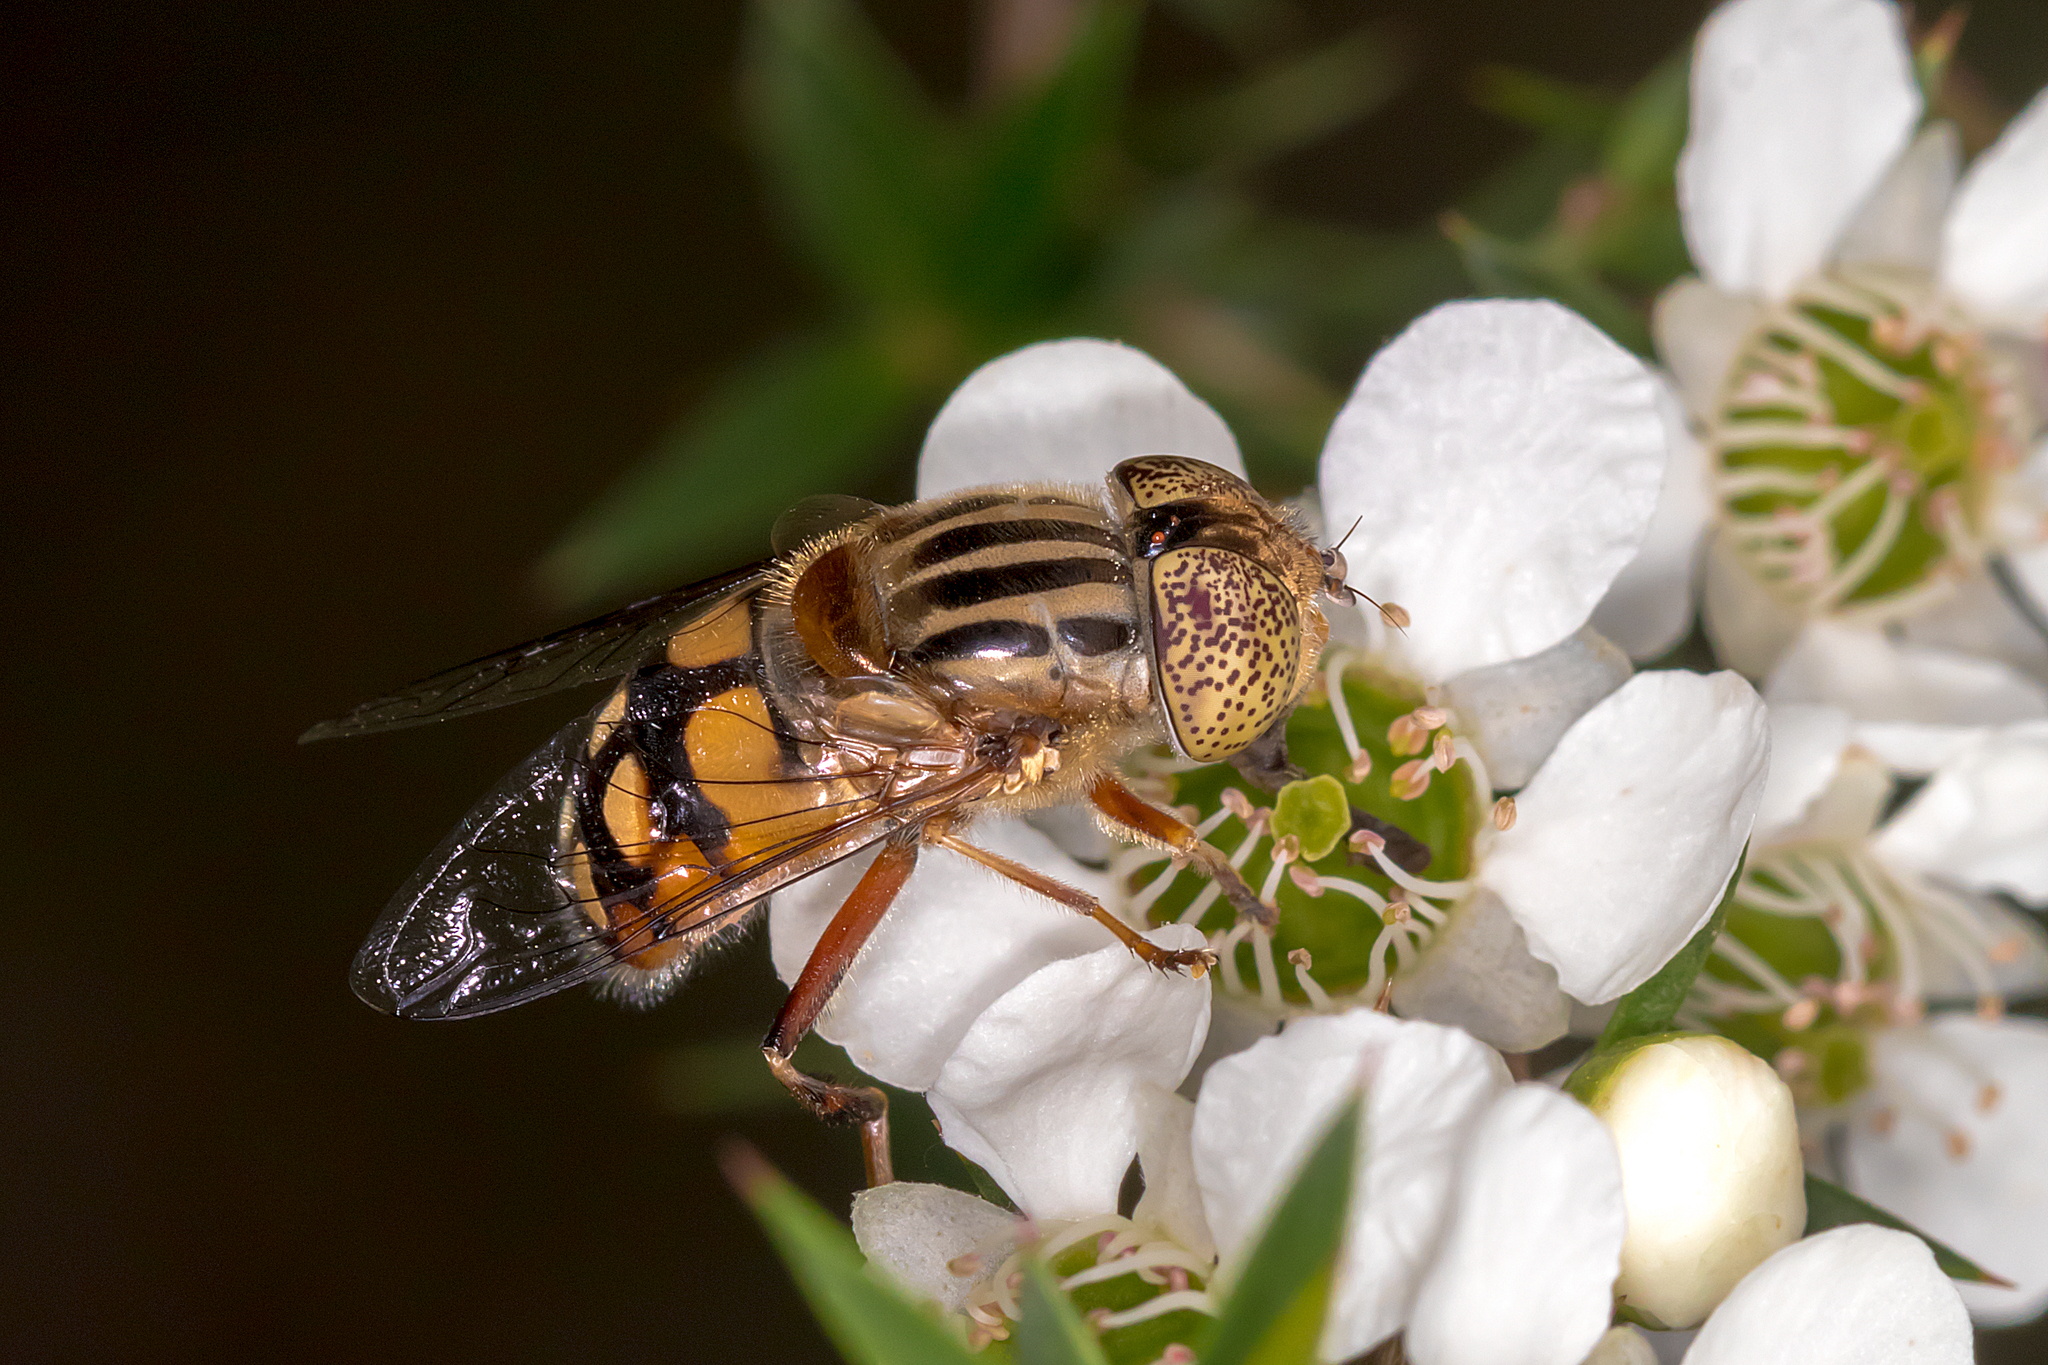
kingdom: Animalia
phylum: Arthropoda
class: Insecta
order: Diptera
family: Syrphidae
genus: Eristalinus
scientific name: Eristalinus punctulatus
